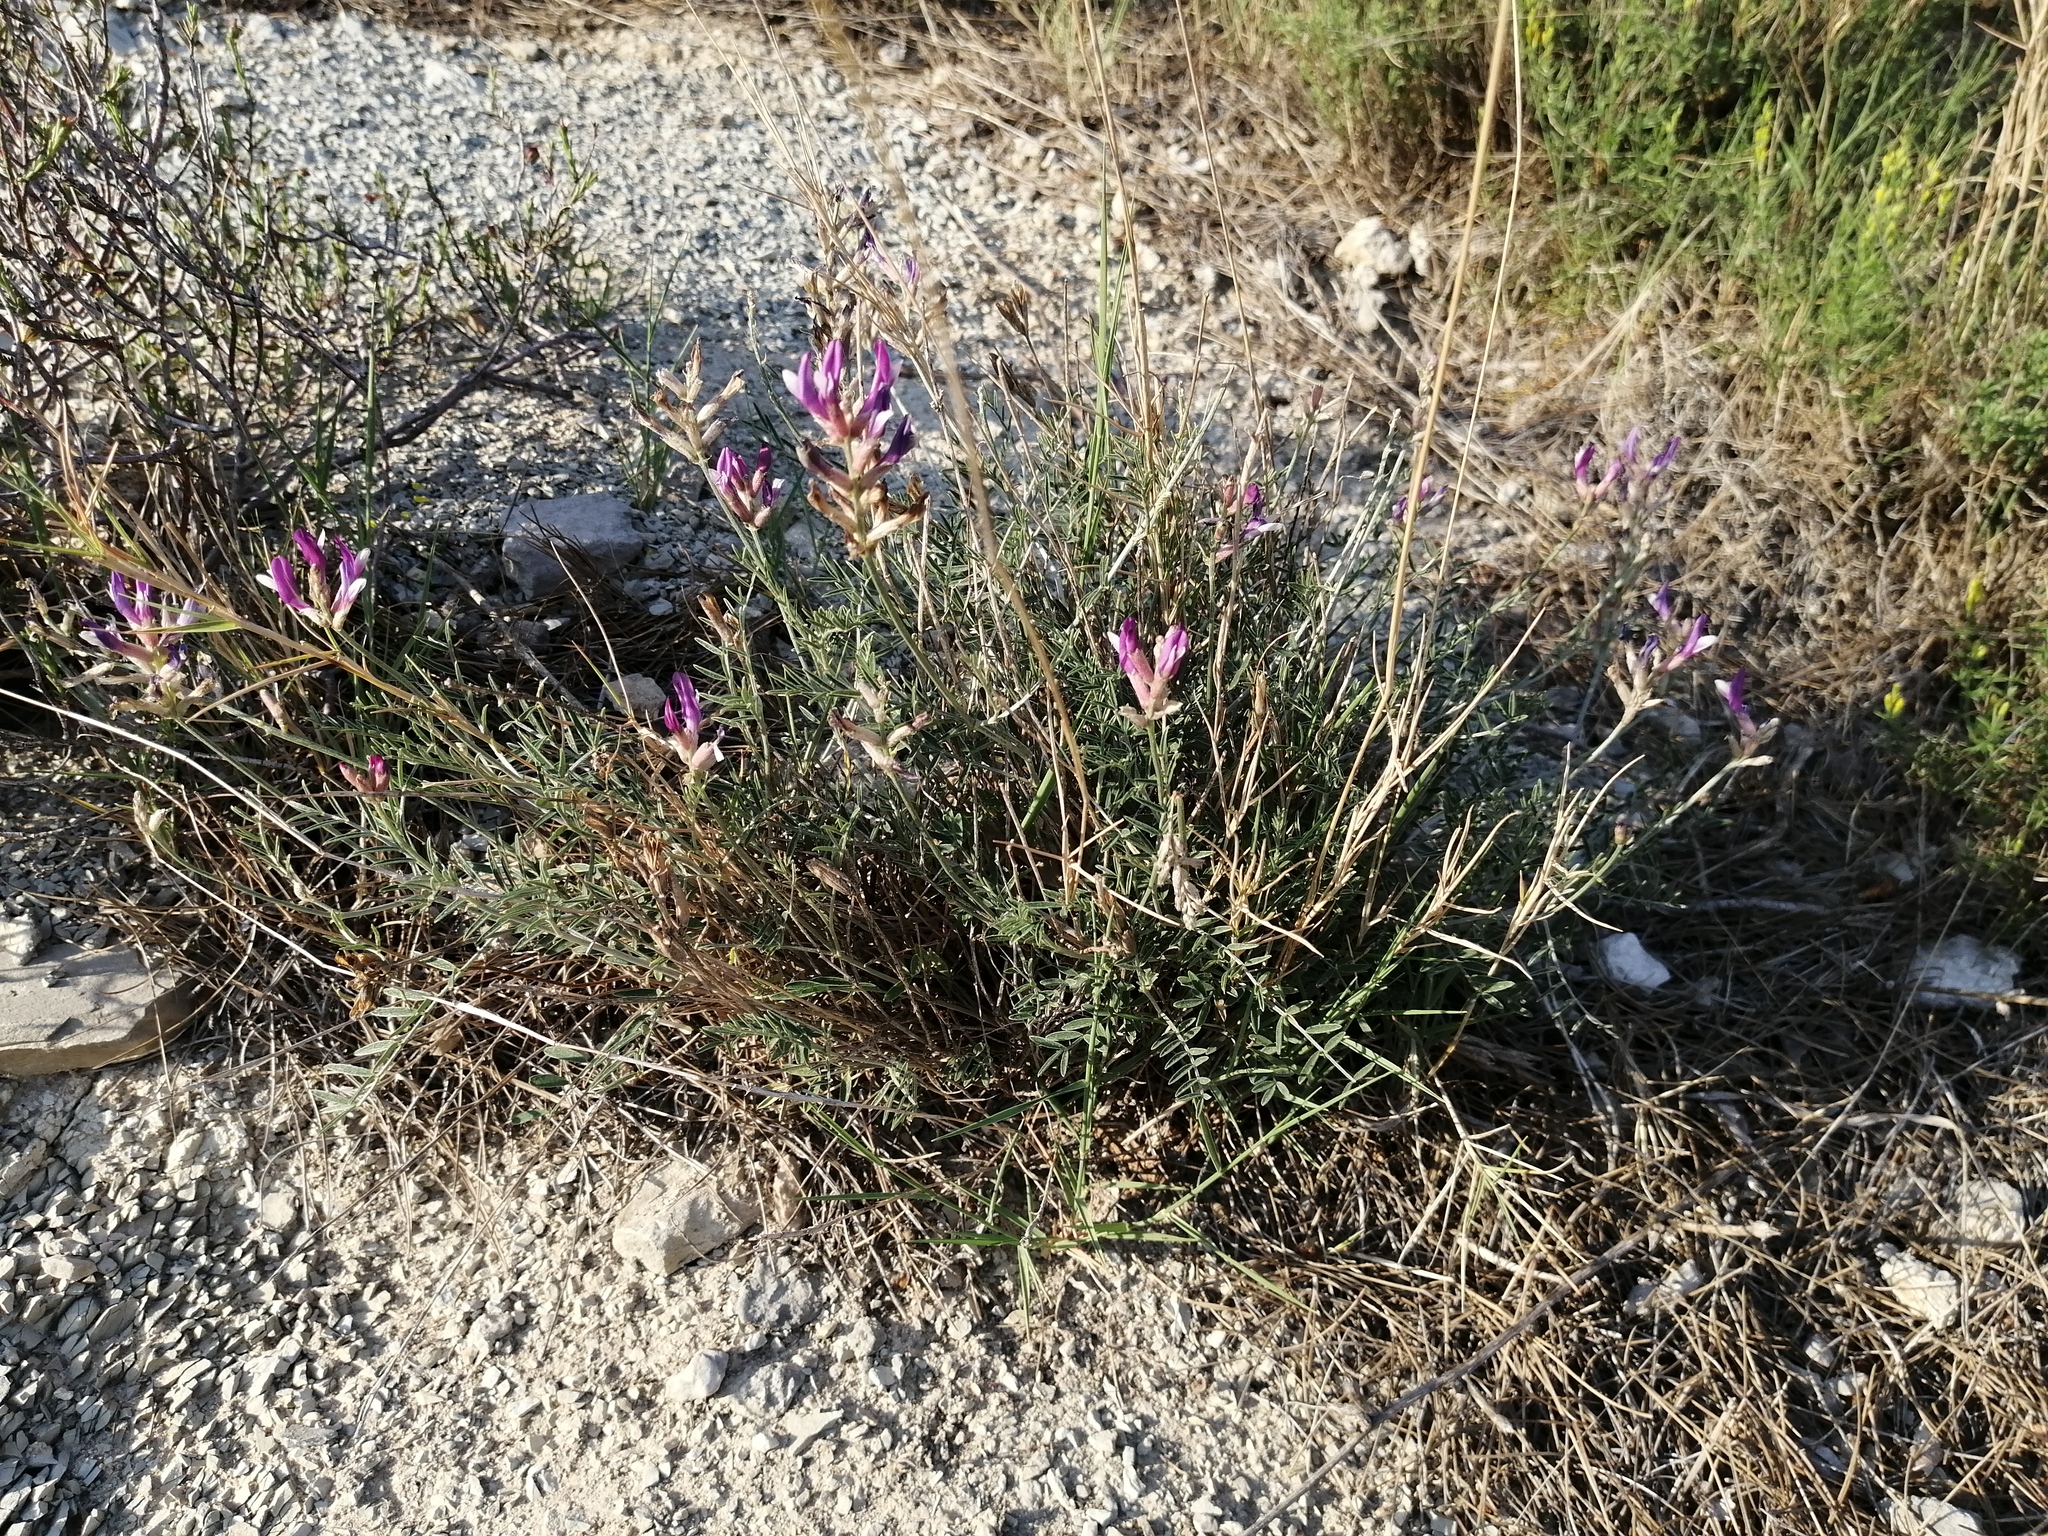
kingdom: Plantae
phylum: Tracheophyta
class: Magnoliopsida
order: Fabales
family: Fabaceae
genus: Astragalus
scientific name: Astragalus muelleri
